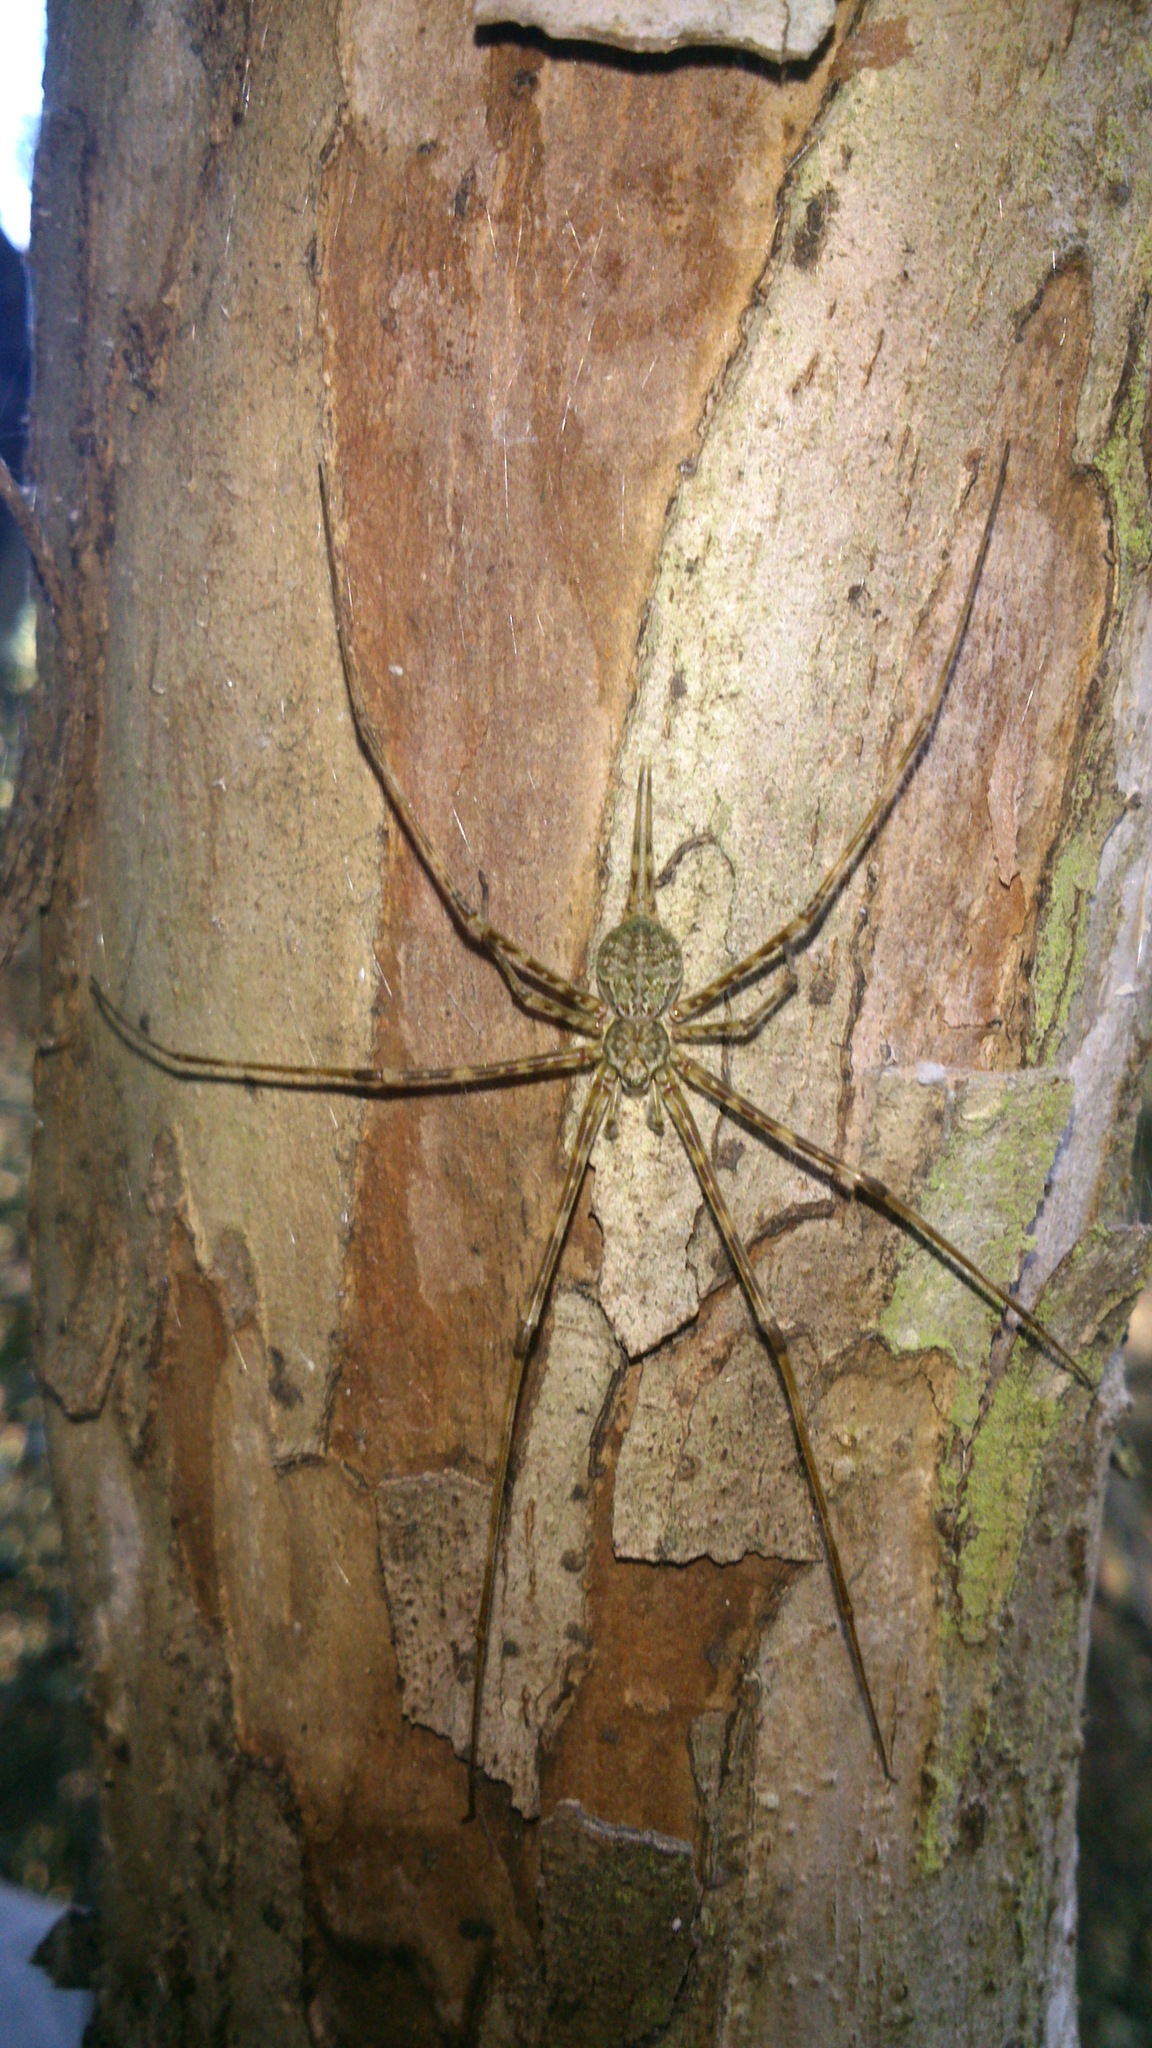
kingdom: Animalia
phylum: Arthropoda
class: Arachnida
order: Araneae
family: Hersiliidae
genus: Neotama
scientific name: Neotama mexicana
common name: Tree trunk spiders
